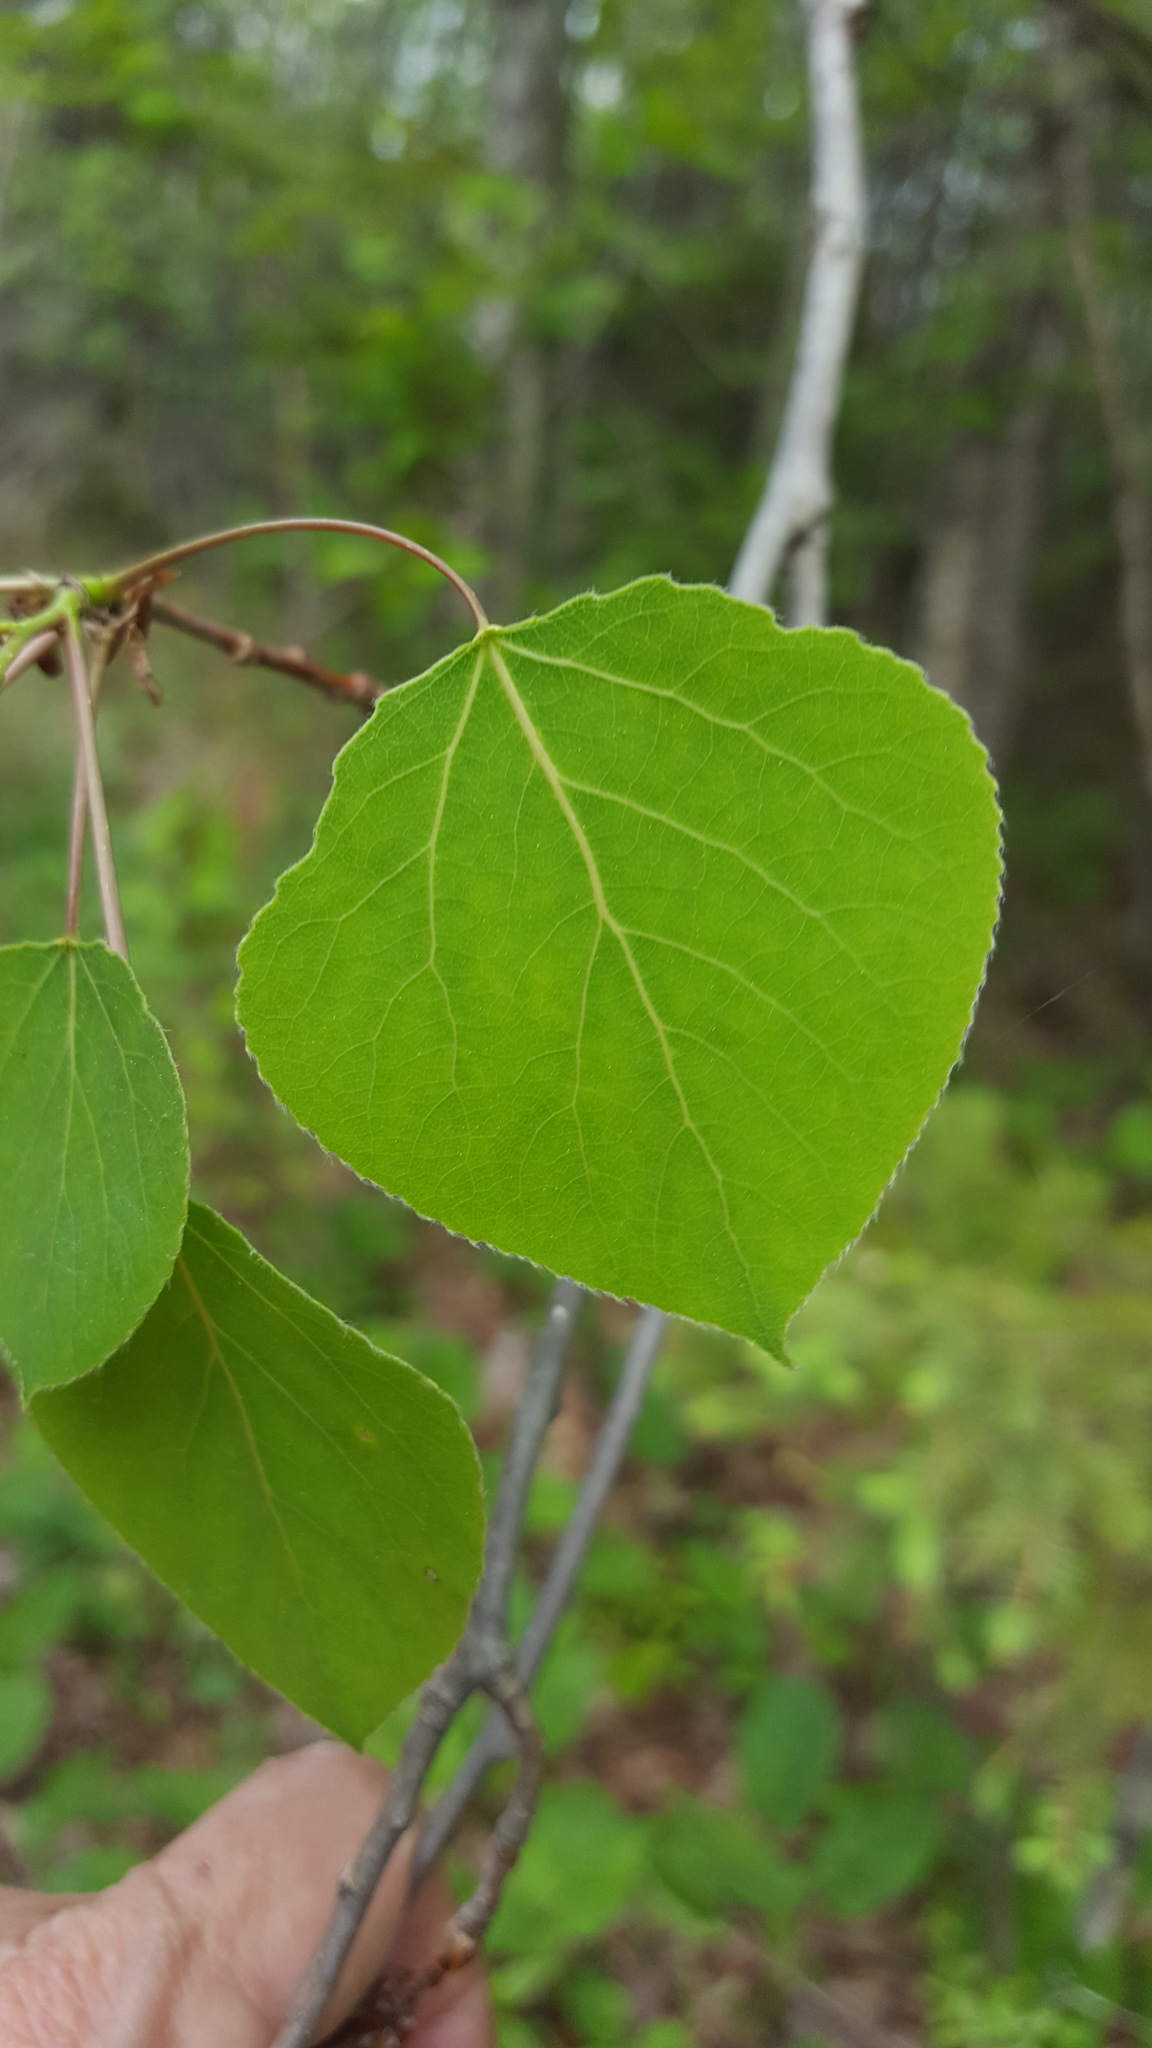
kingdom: Plantae
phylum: Tracheophyta
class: Magnoliopsida
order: Malpighiales
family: Salicaceae
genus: Populus
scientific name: Populus tremuloides
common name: Quaking aspen
